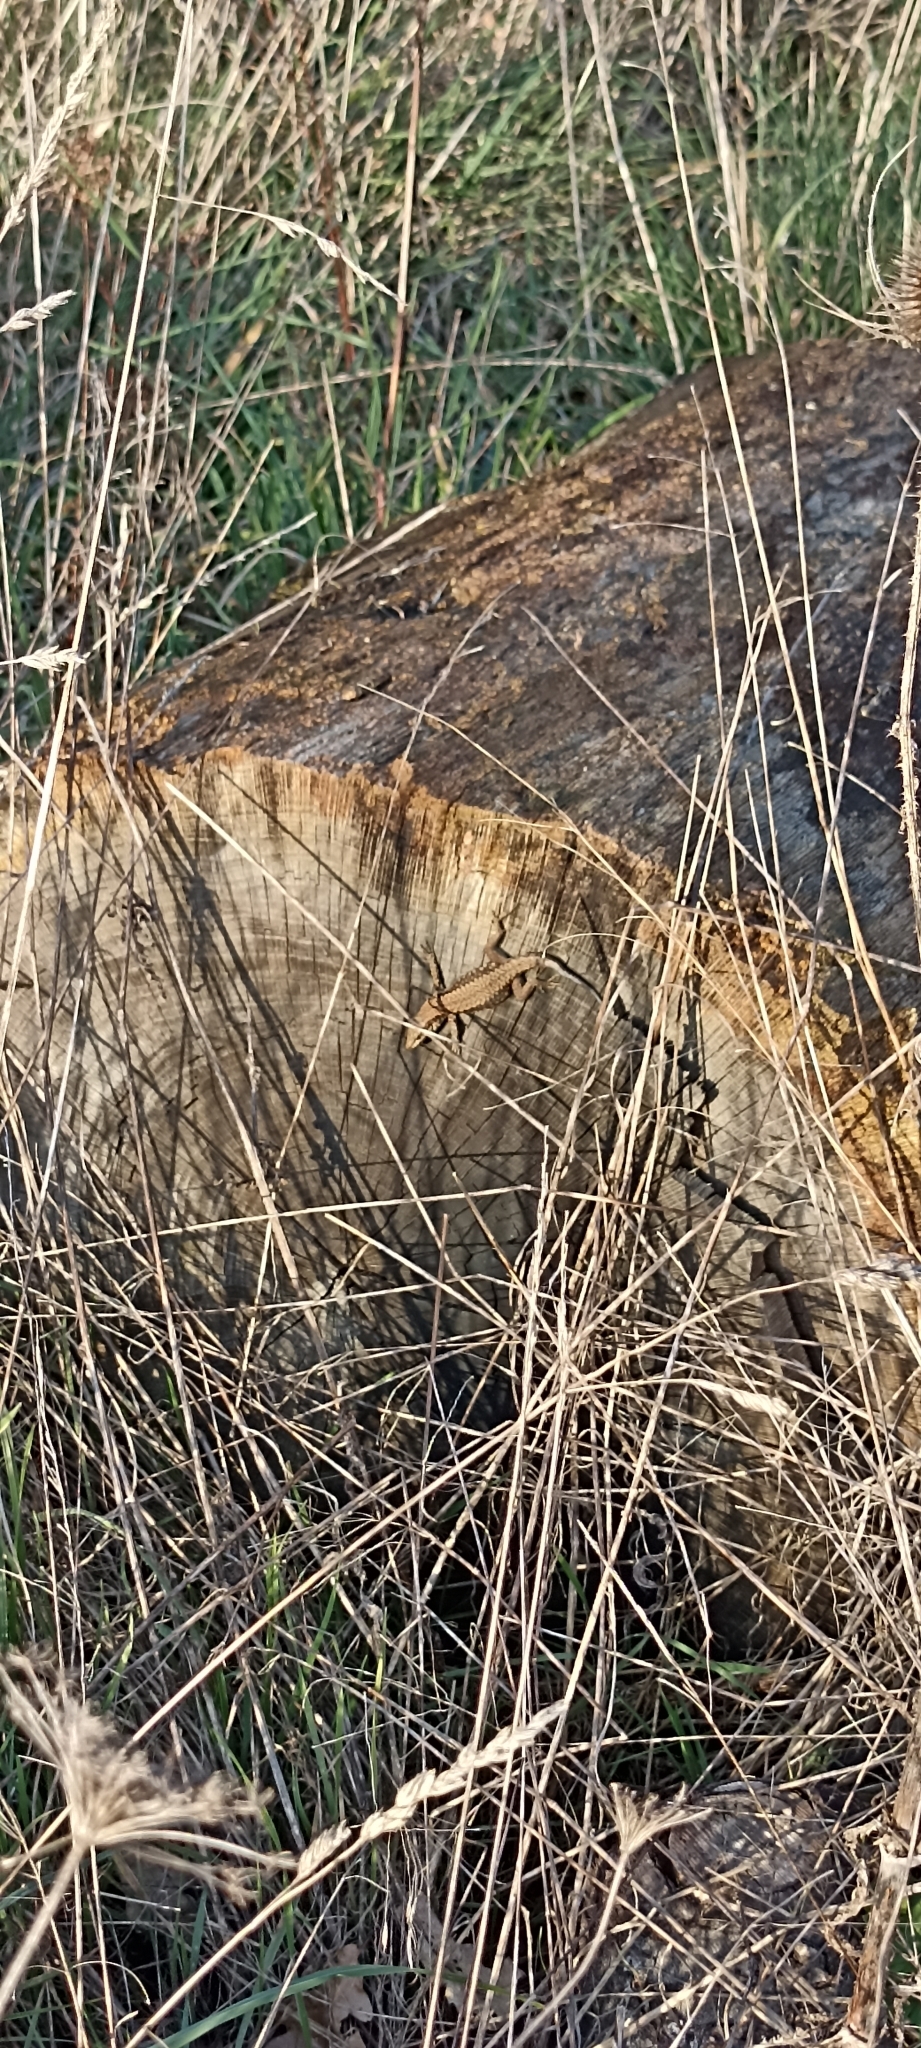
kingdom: Animalia
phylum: Chordata
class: Squamata
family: Lacertidae
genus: Podarcis
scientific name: Podarcis muralis
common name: Common wall lizard
